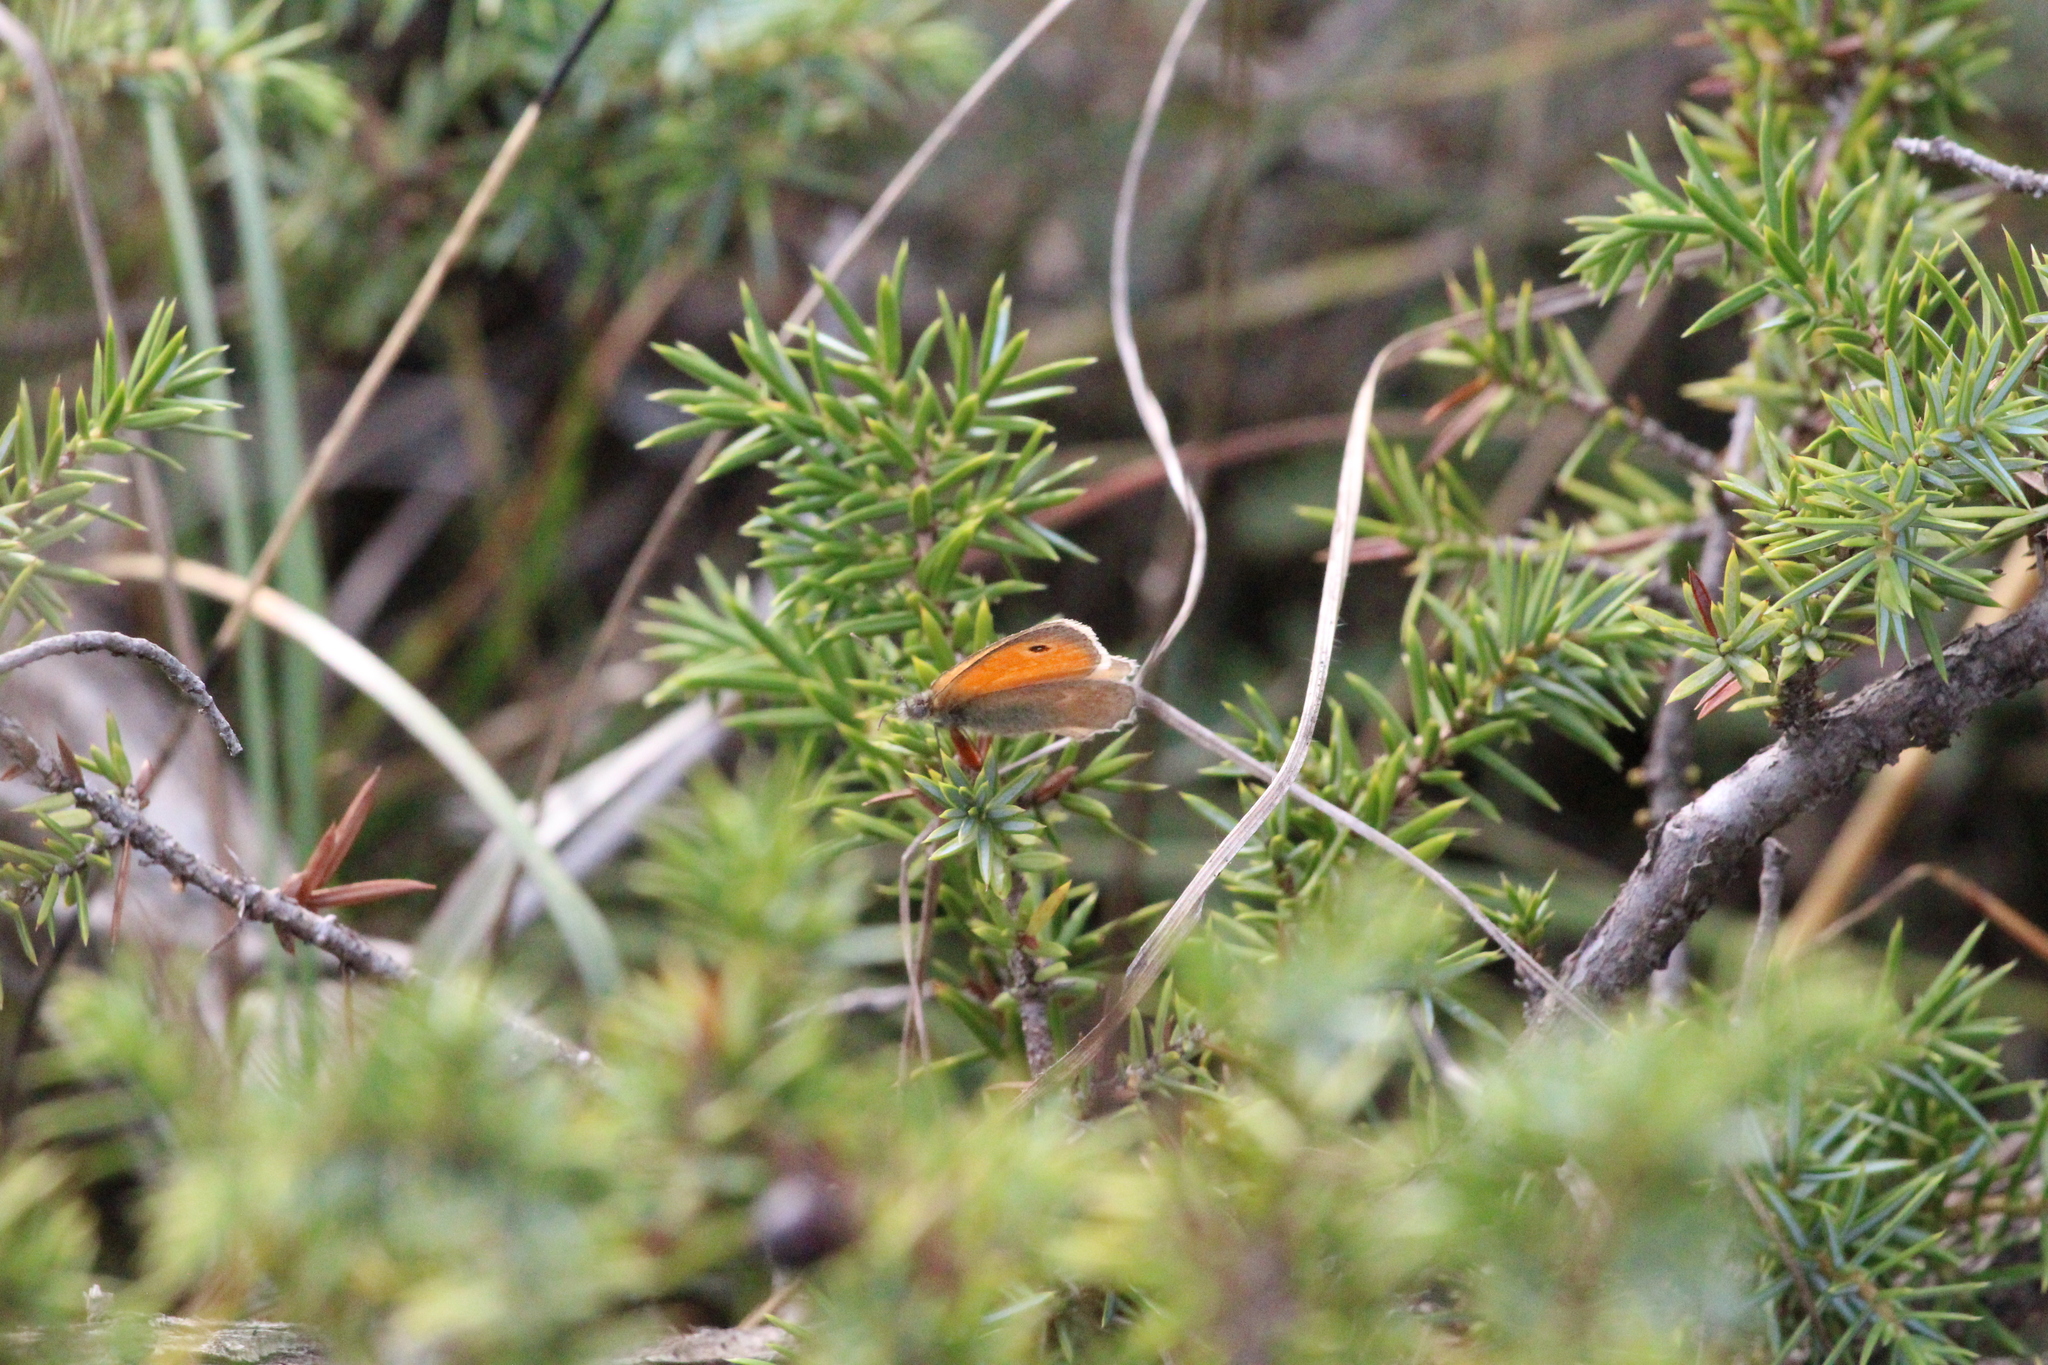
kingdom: Animalia
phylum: Arthropoda
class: Insecta
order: Lepidoptera
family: Nymphalidae
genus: Coenonympha
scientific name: Coenonympha pamphilus
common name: Small heath
